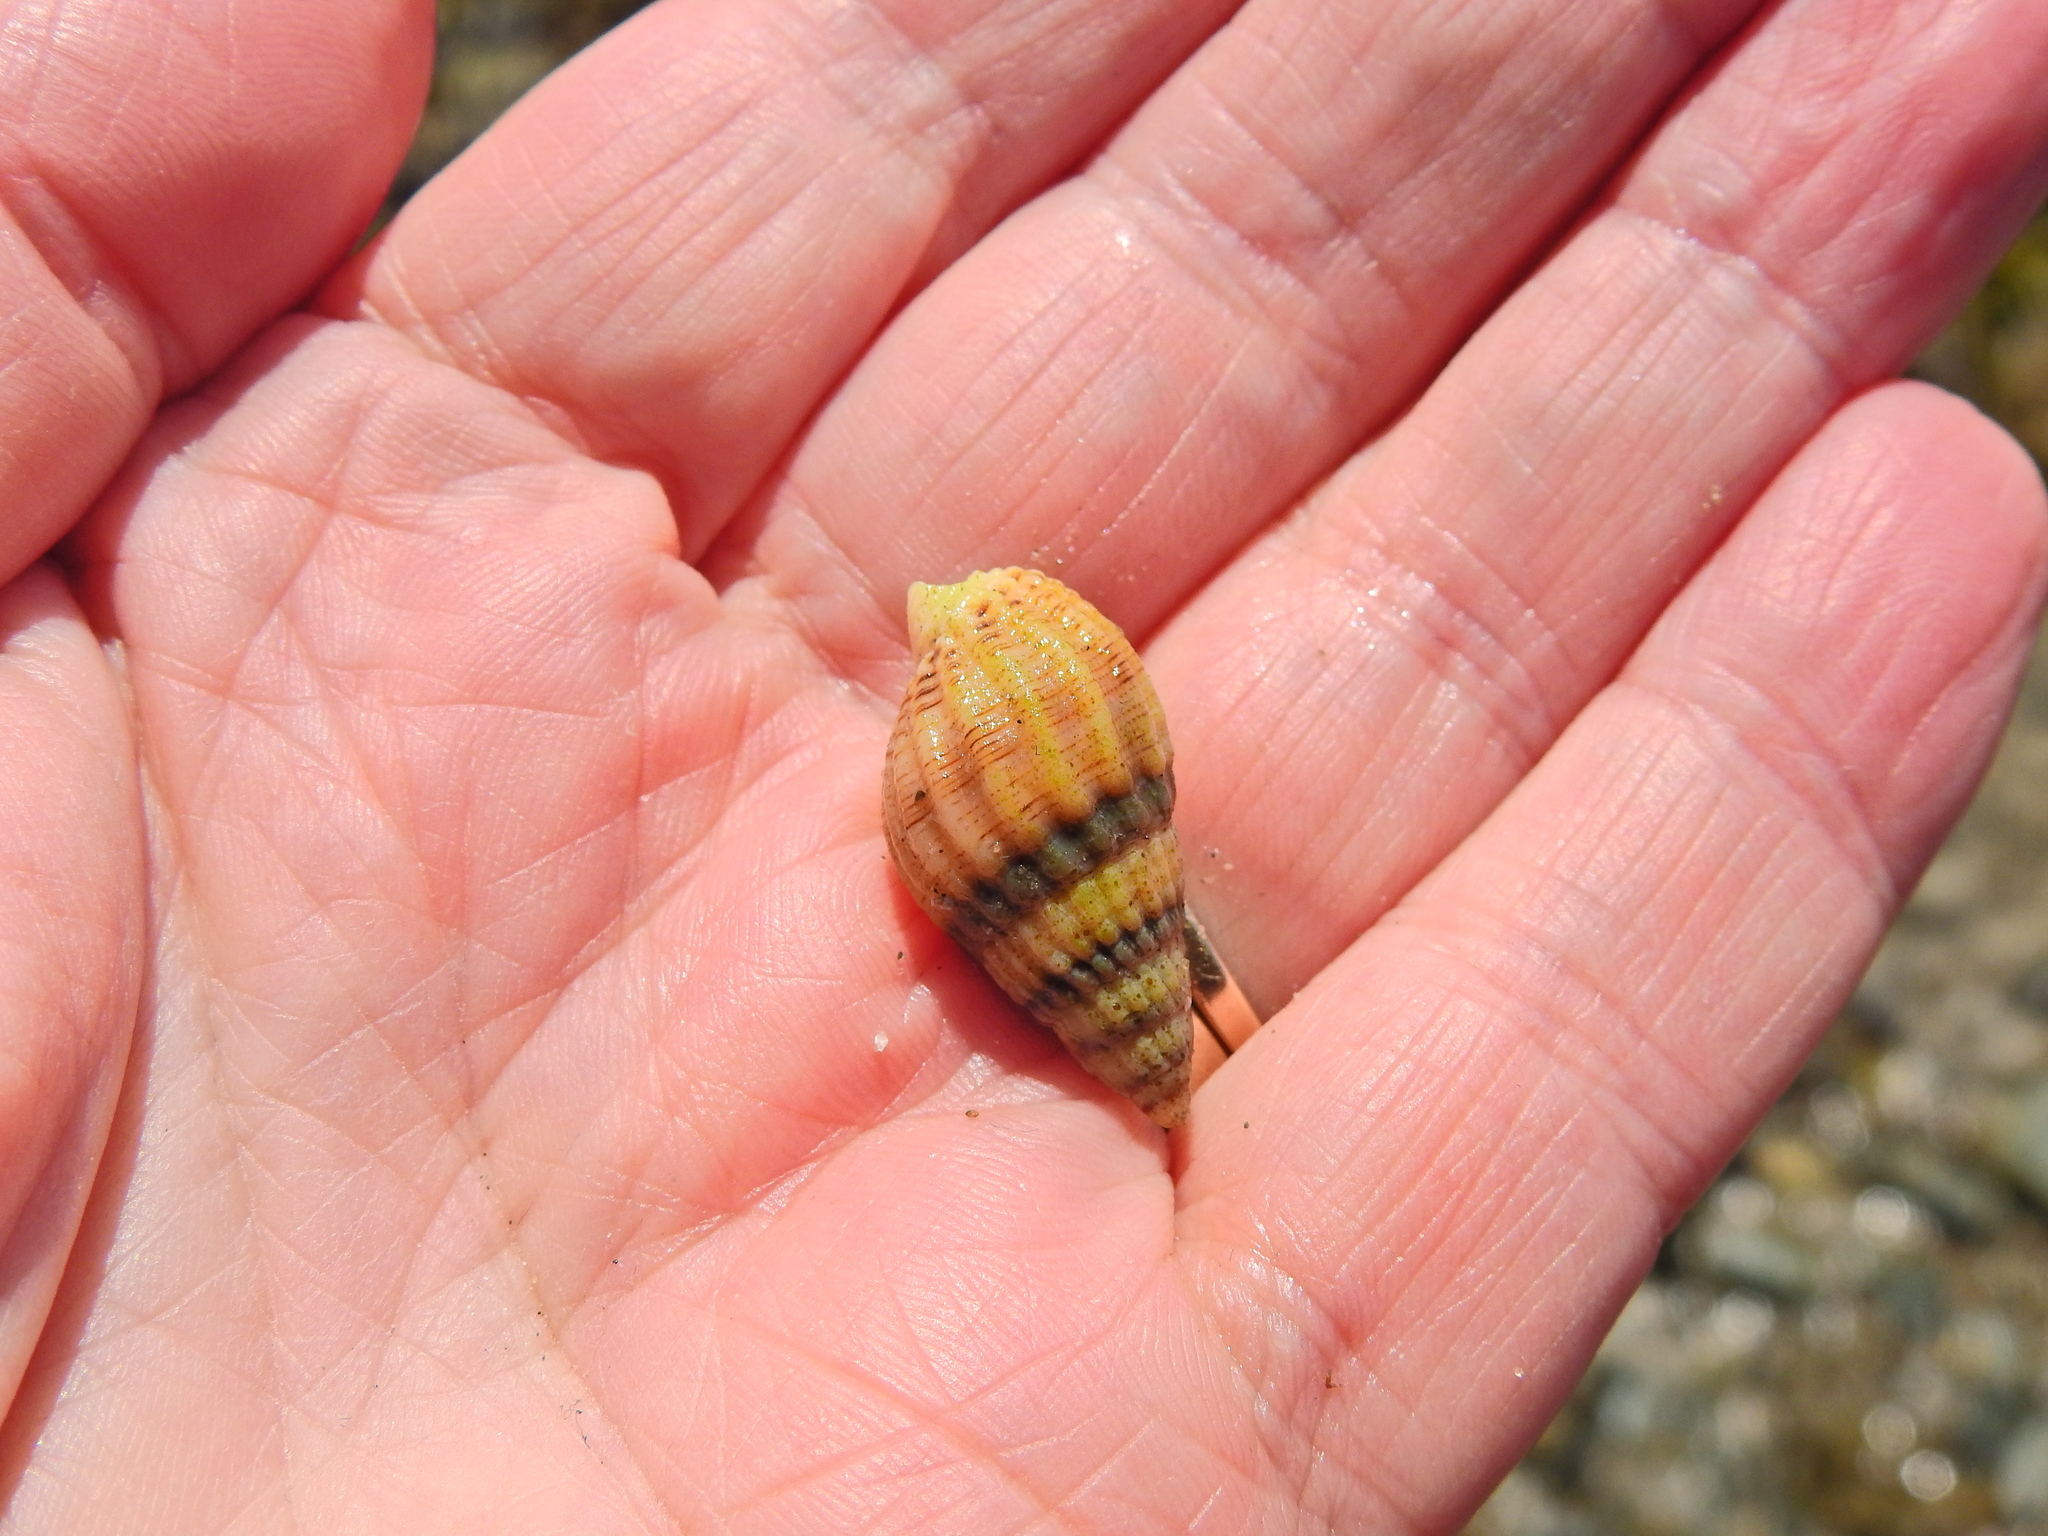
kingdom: Animalia
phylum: Mollusca
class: Gastropoda
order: Neogastropoda
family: Nassariidae
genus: Tritia
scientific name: Tritia reticulata
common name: Netted dog whelk
